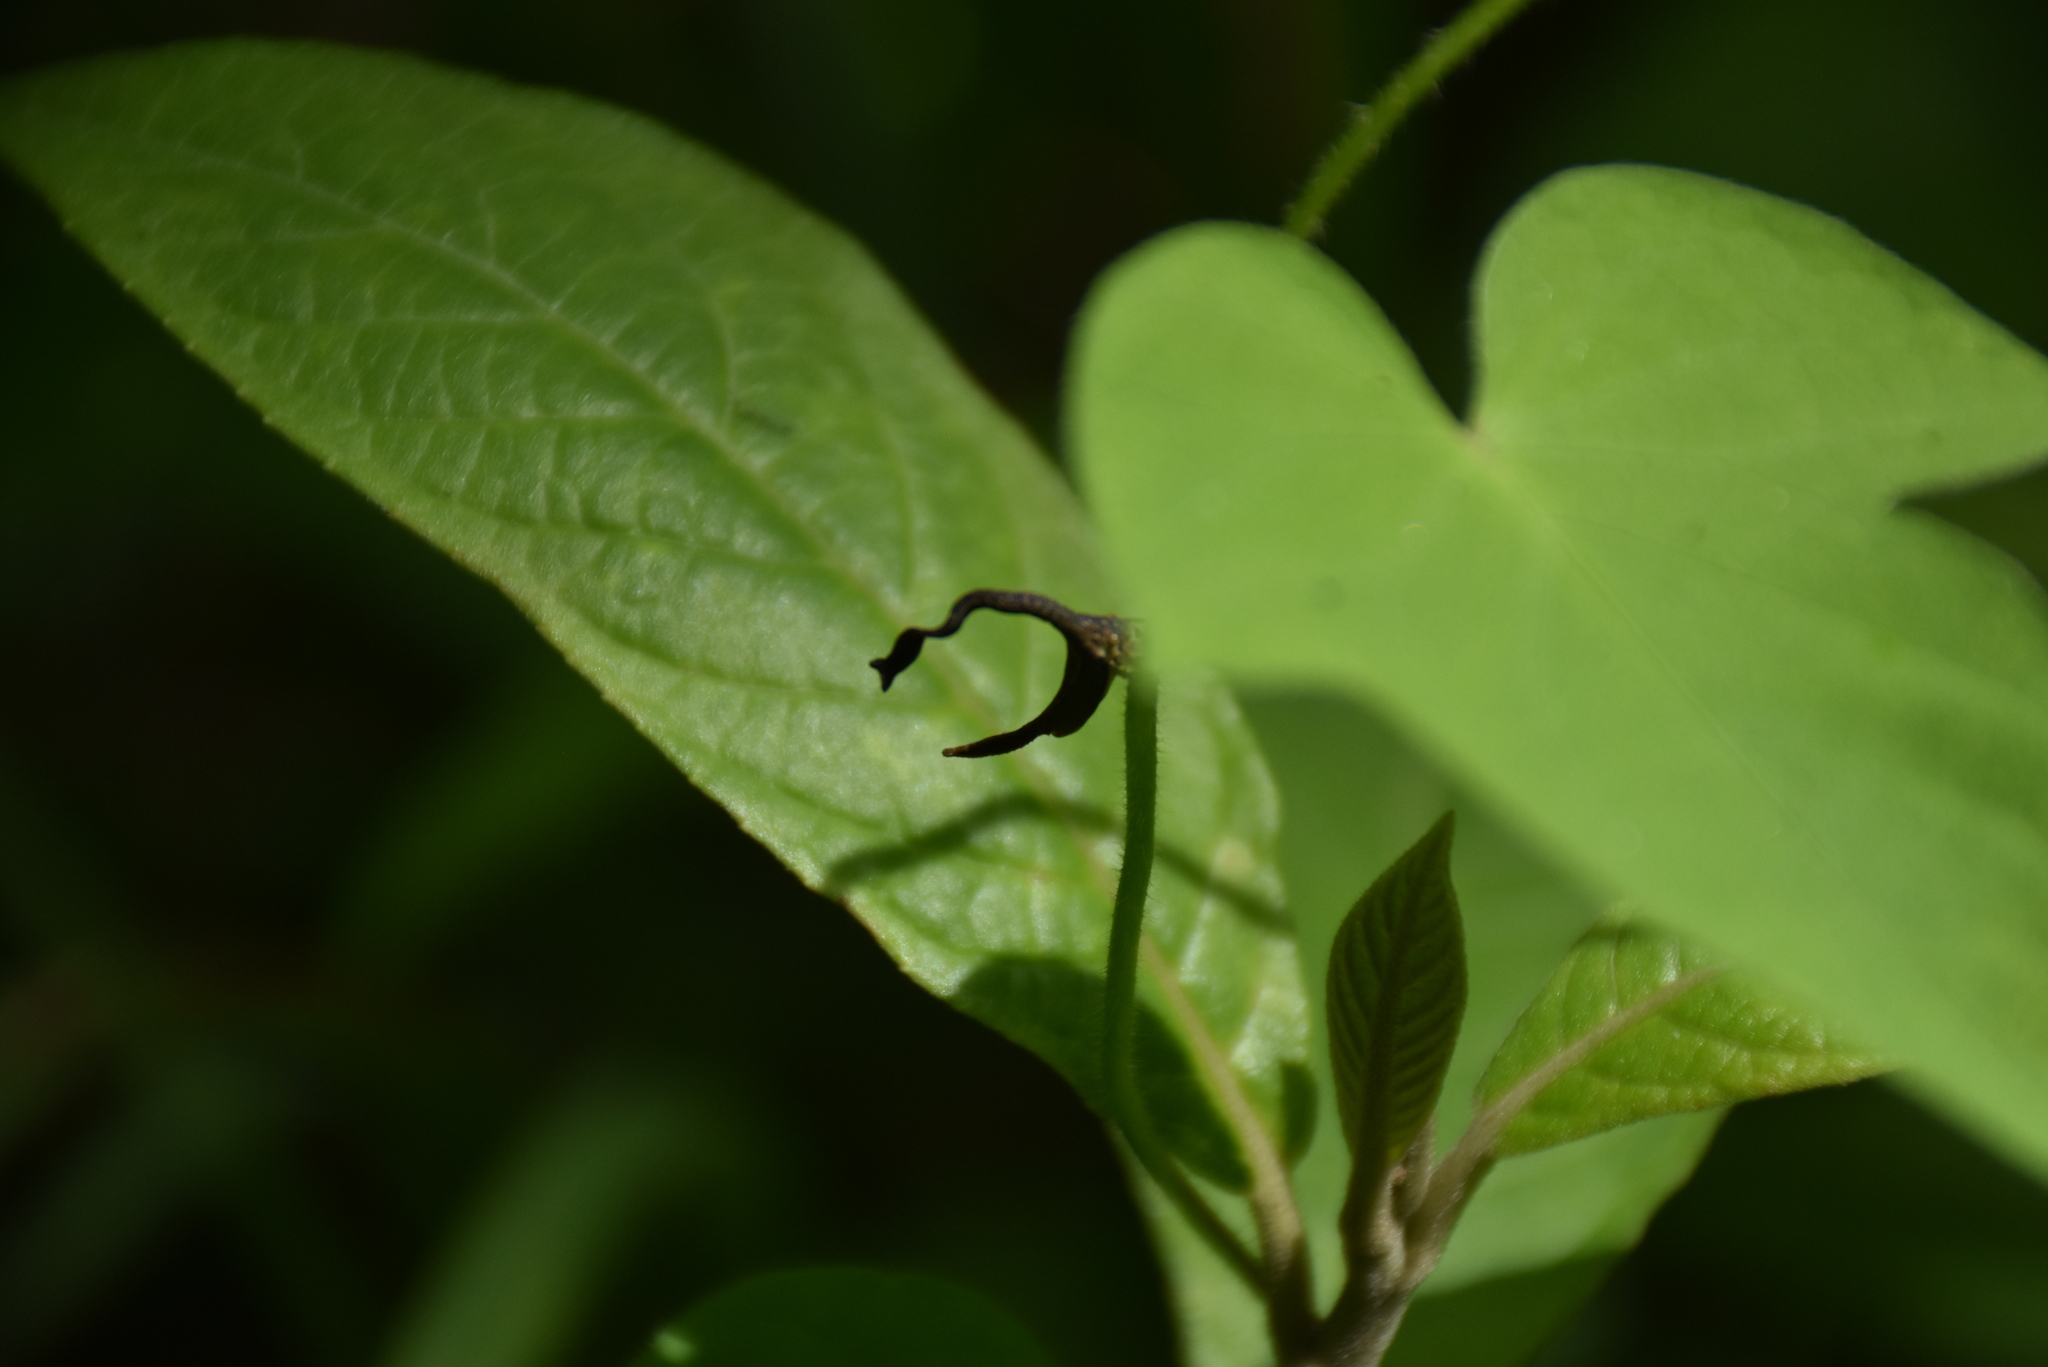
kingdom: Animalia
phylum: Arthropoda
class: Insecta
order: Hemiptera
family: Membracidae
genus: Cladonota
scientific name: Cladonota apicalis
